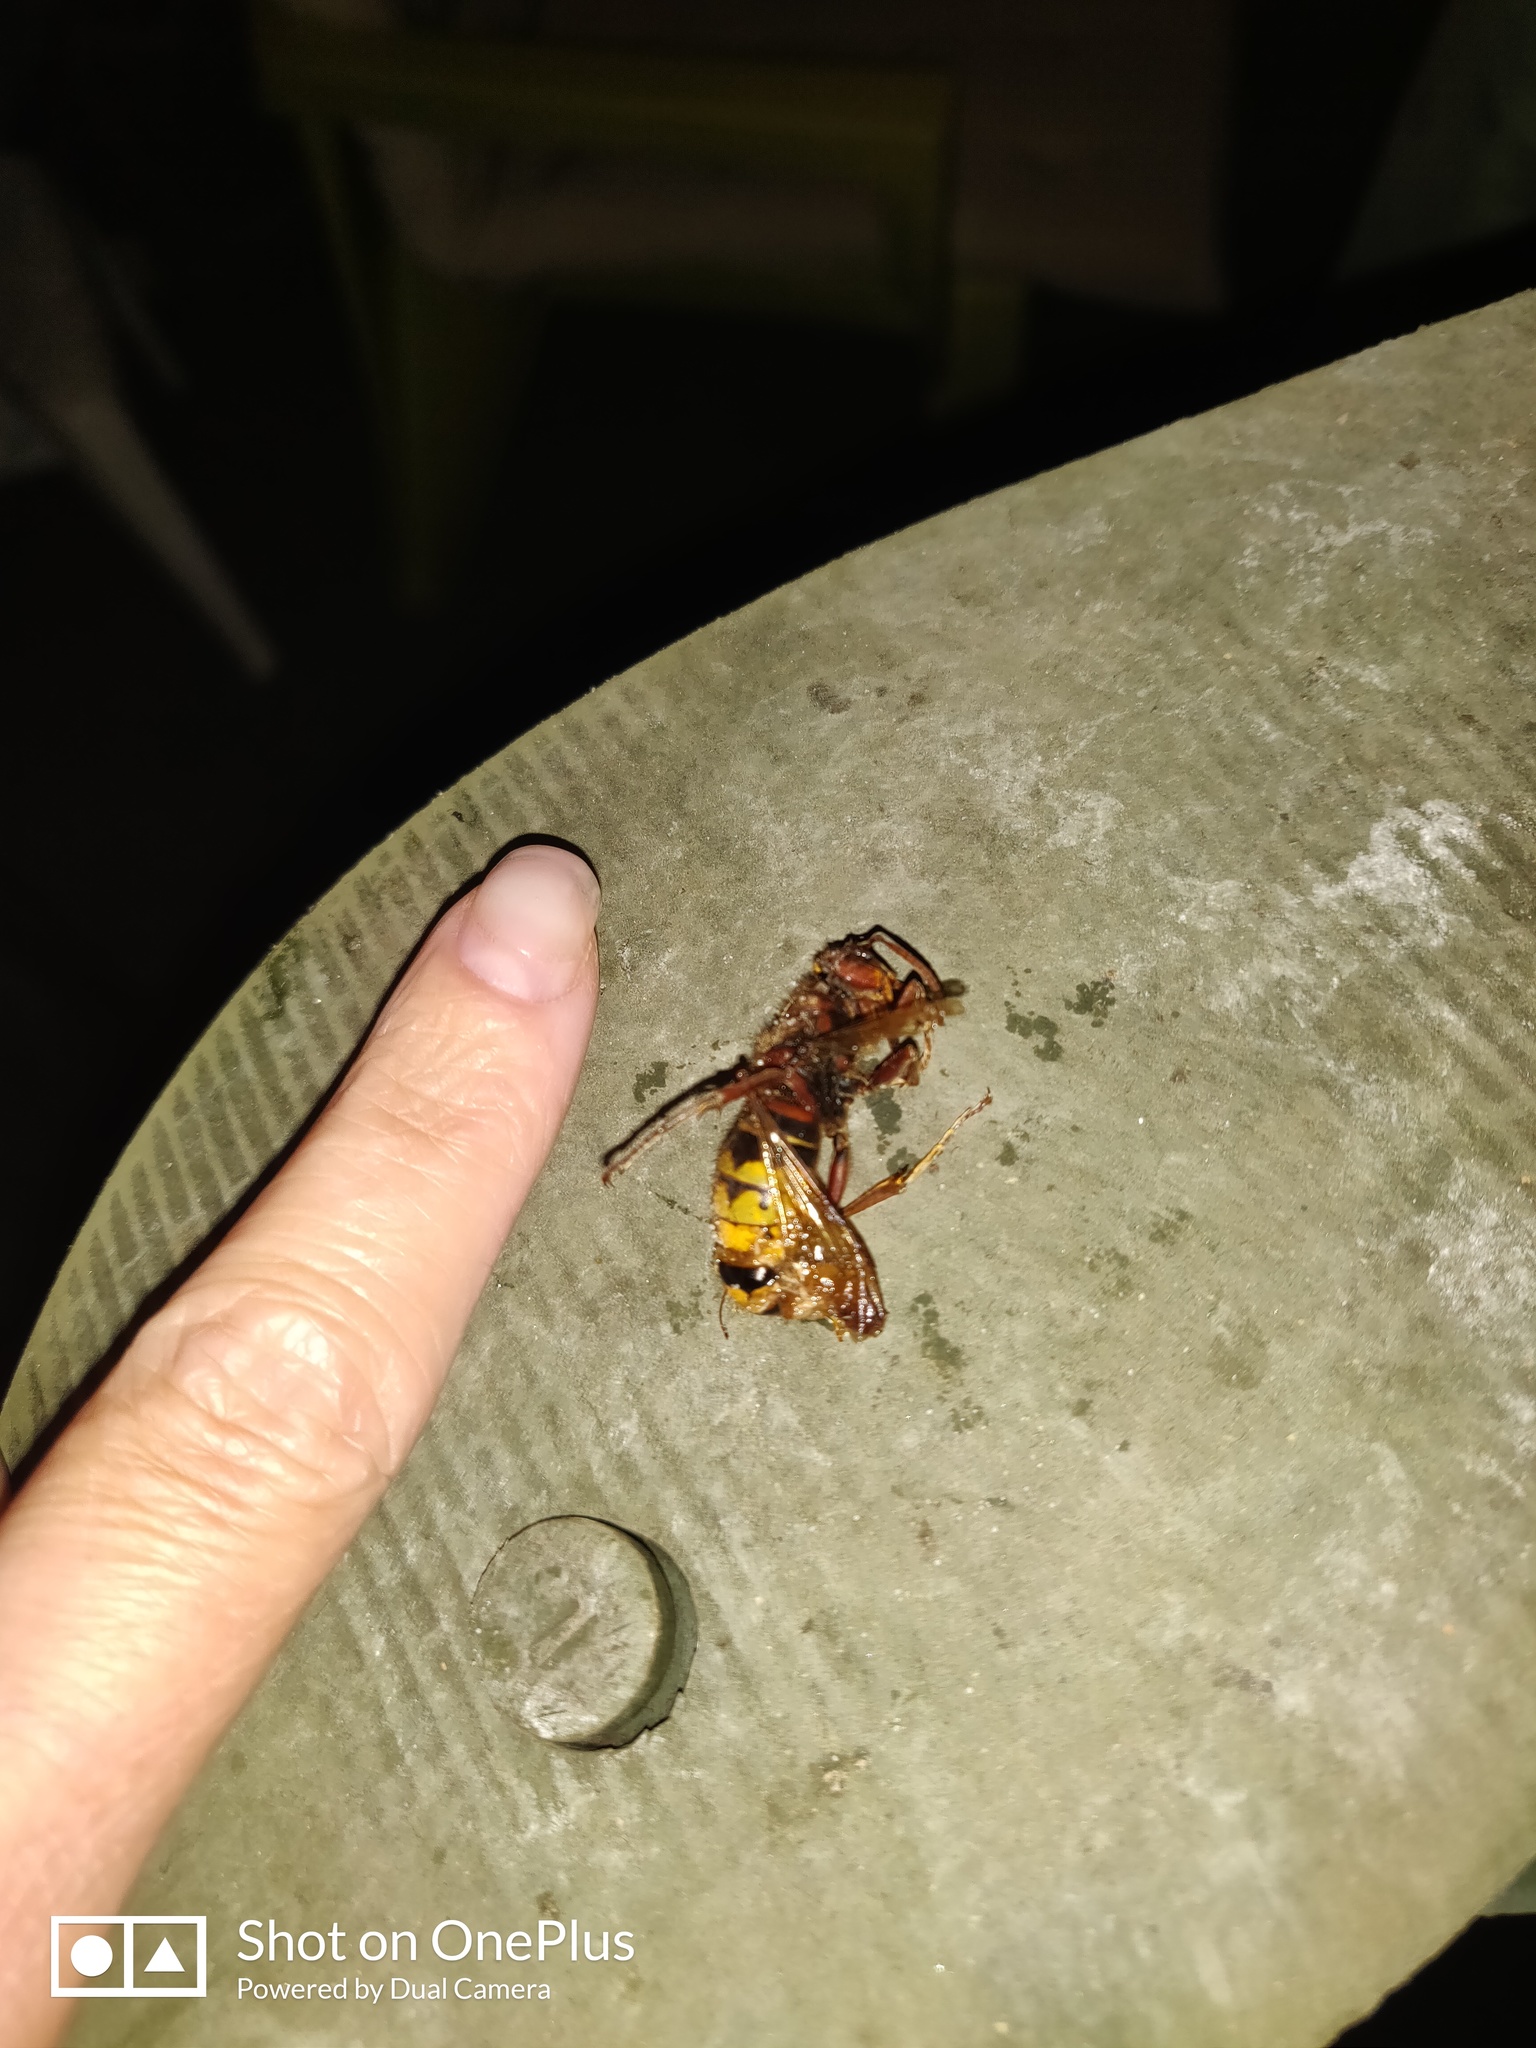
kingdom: Animalia
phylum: Arthropoda
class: Insecta
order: Hymenoptera
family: Vespidae
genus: Vespa
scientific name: Vespa crabro
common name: Hornet
